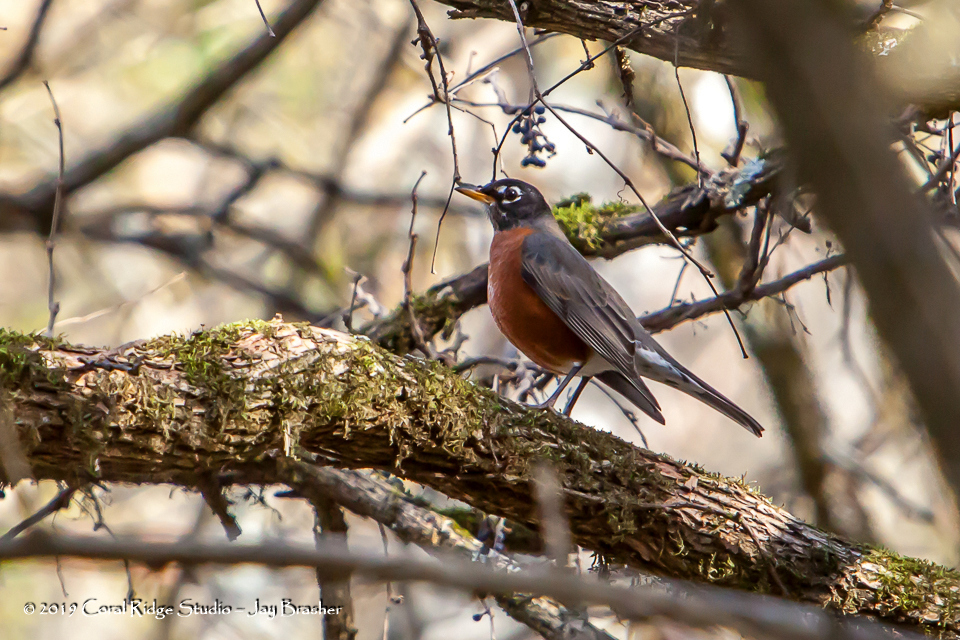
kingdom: Animalia
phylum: Chordata
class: Aves
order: Passeriformes
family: Turdidae
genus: Turdus
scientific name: Turdus migratorius
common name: American robin
